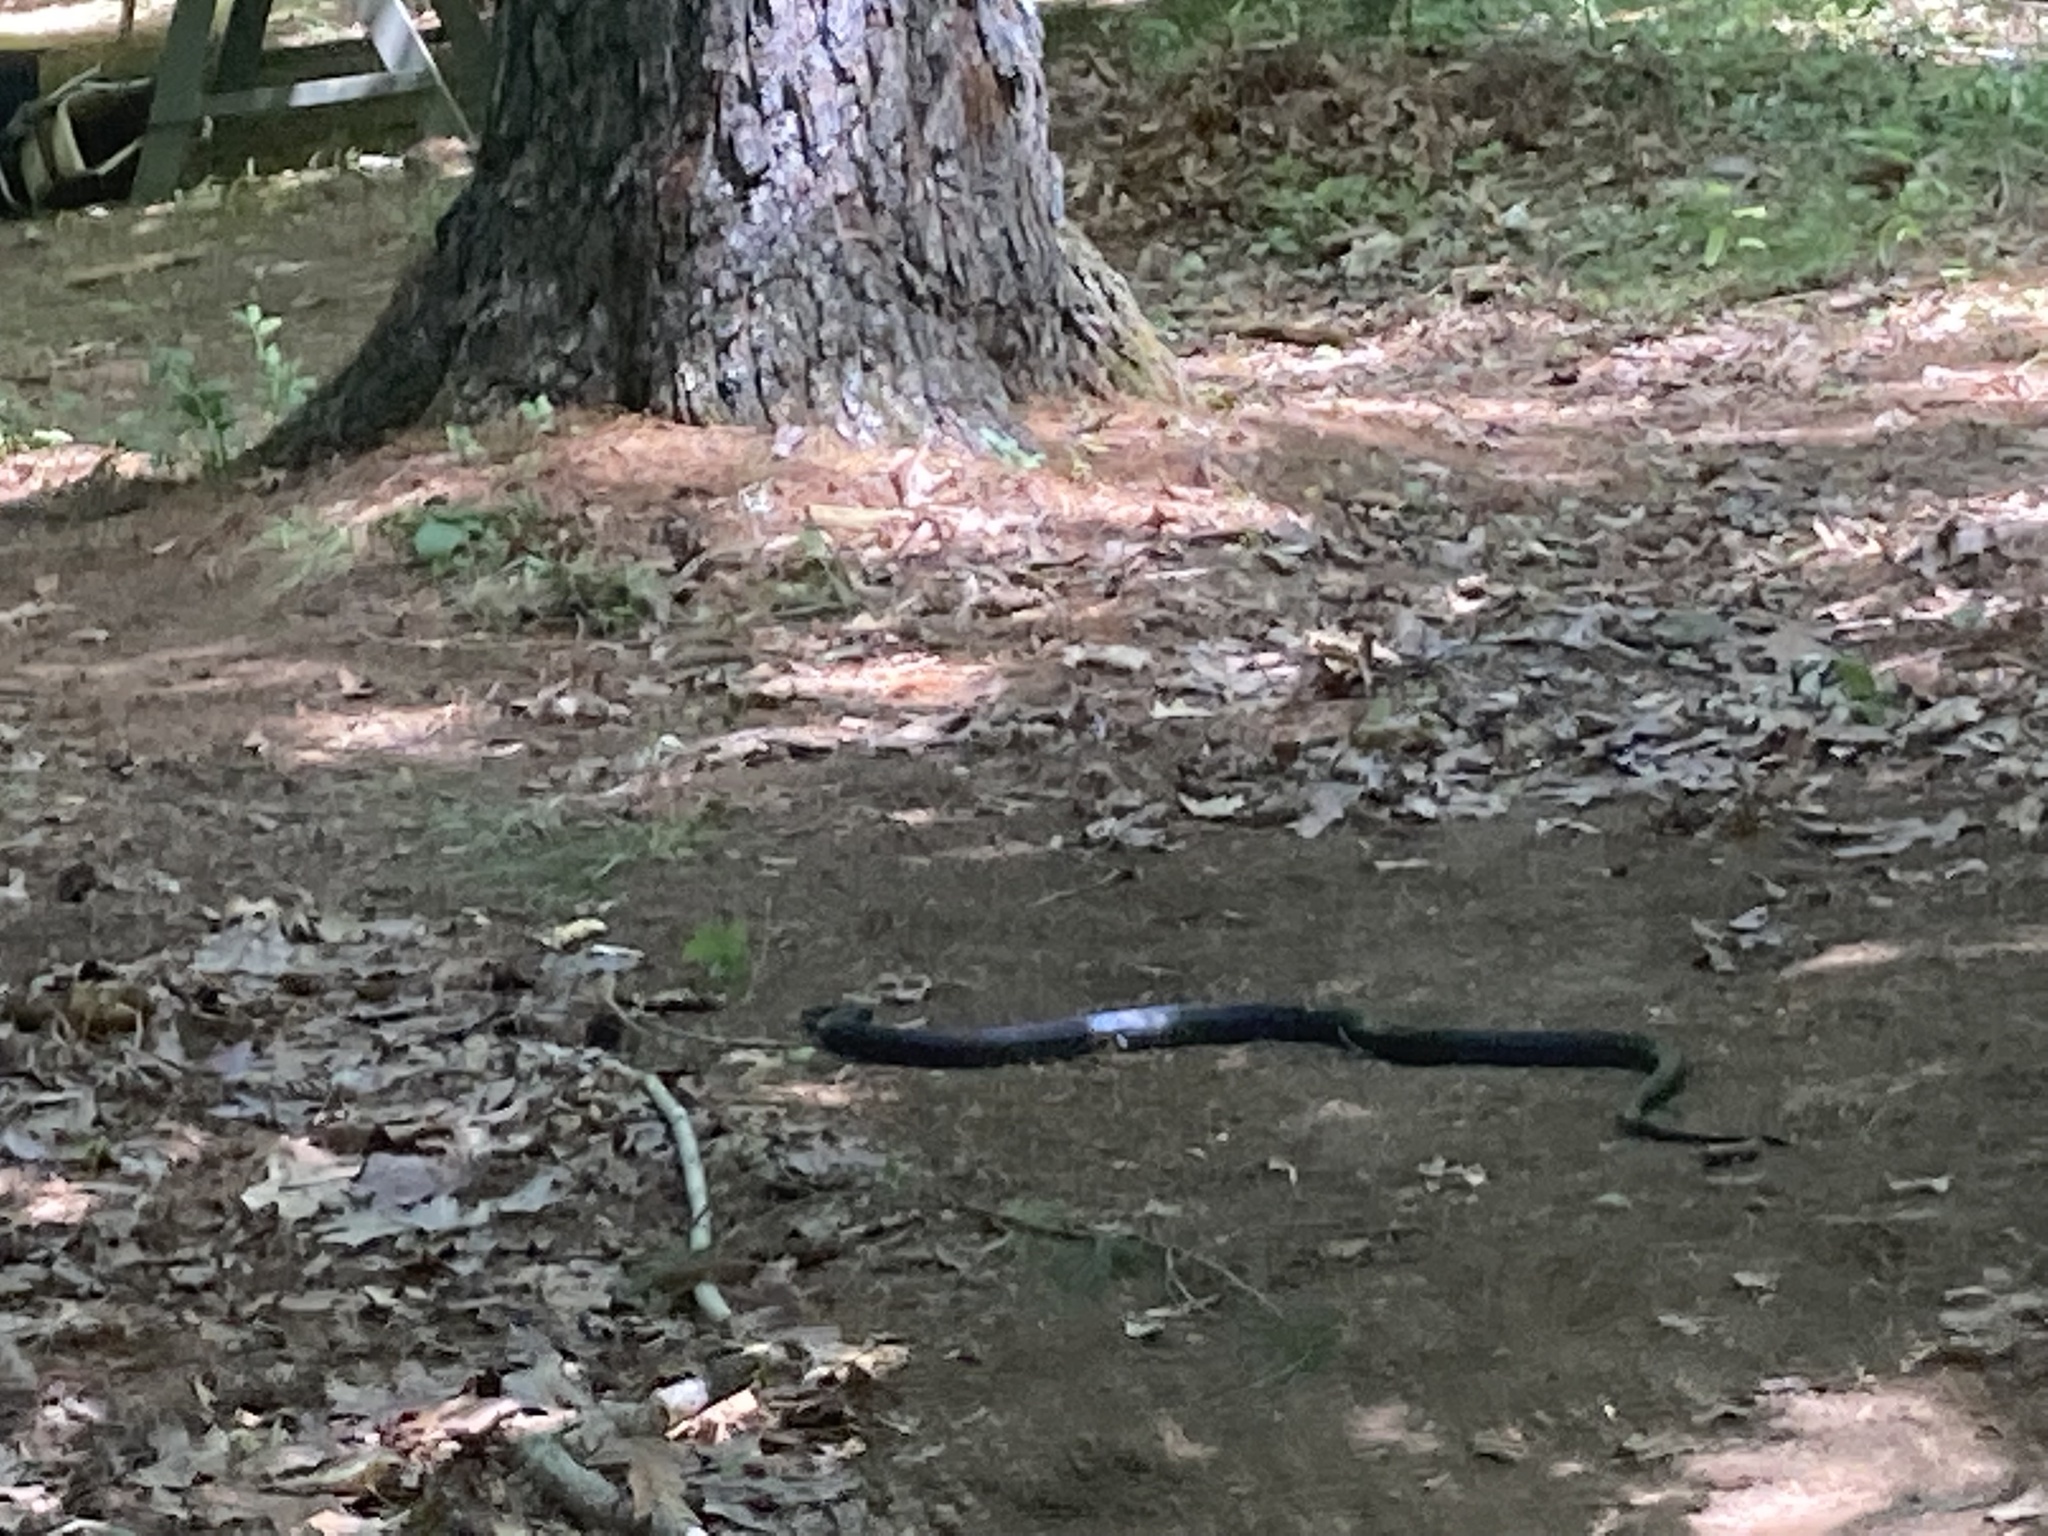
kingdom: Animalia
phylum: Chordata
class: Squamata
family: Colubridae
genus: Pantherophis
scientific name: Pantherophis
